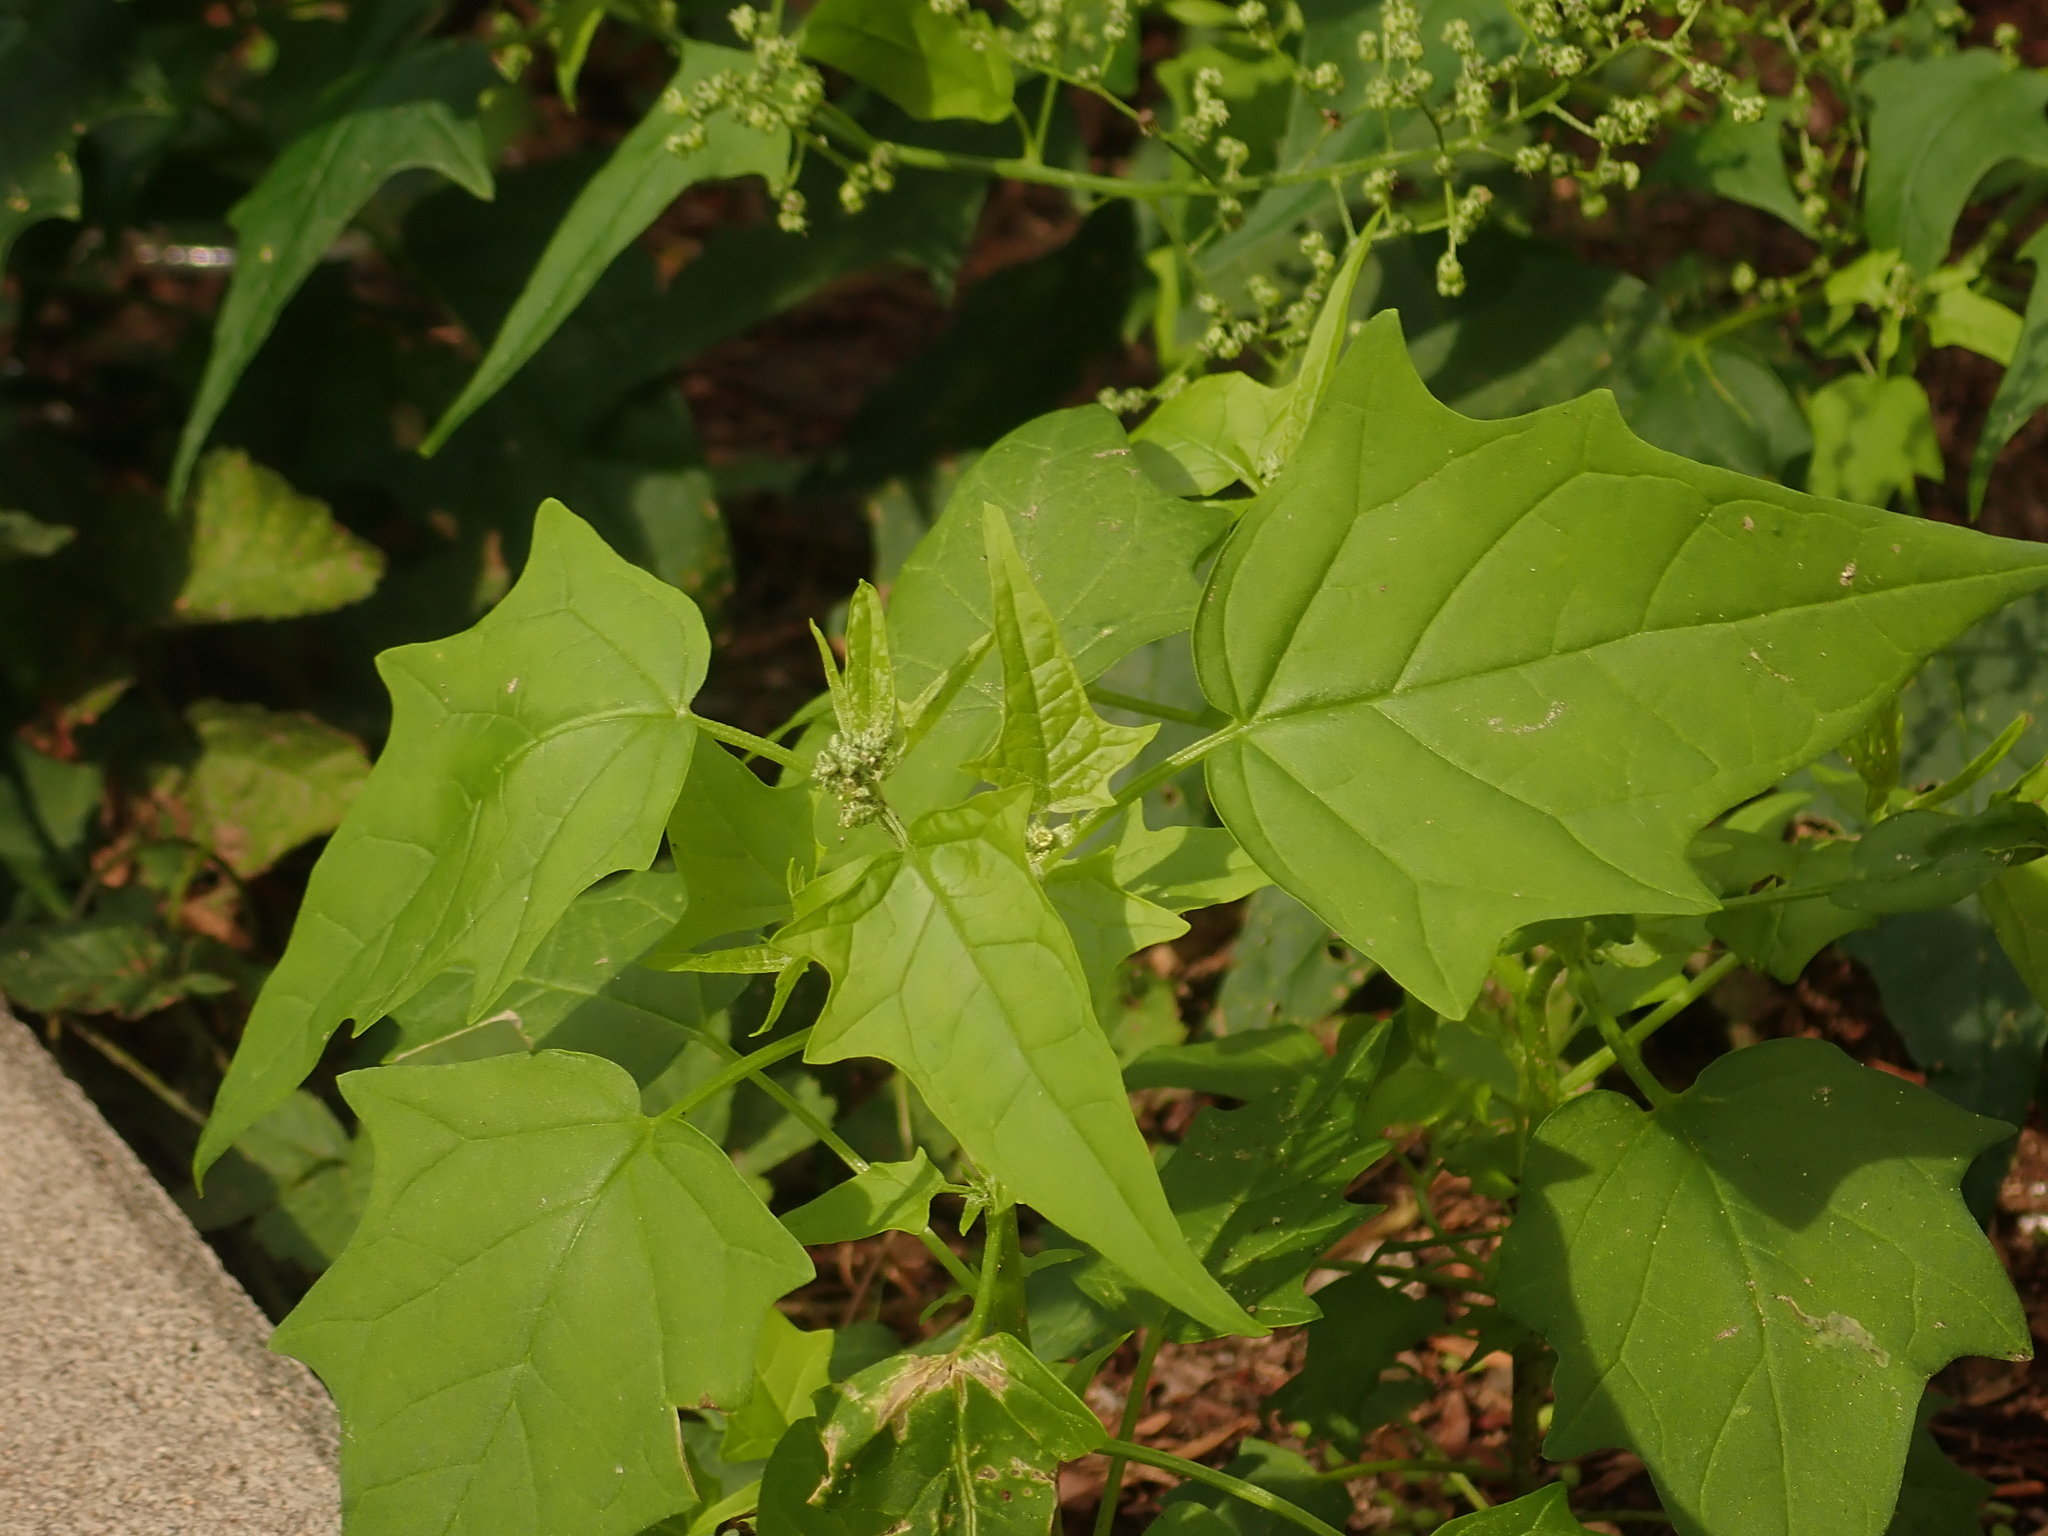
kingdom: Plantae
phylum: Tracheophyta
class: Magnoliopsida
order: Caryophyllales
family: Amaranthaceae
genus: Chenopodiastrum
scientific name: Chenopodiastrum hybridum
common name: Mapleleaf goosefoot
